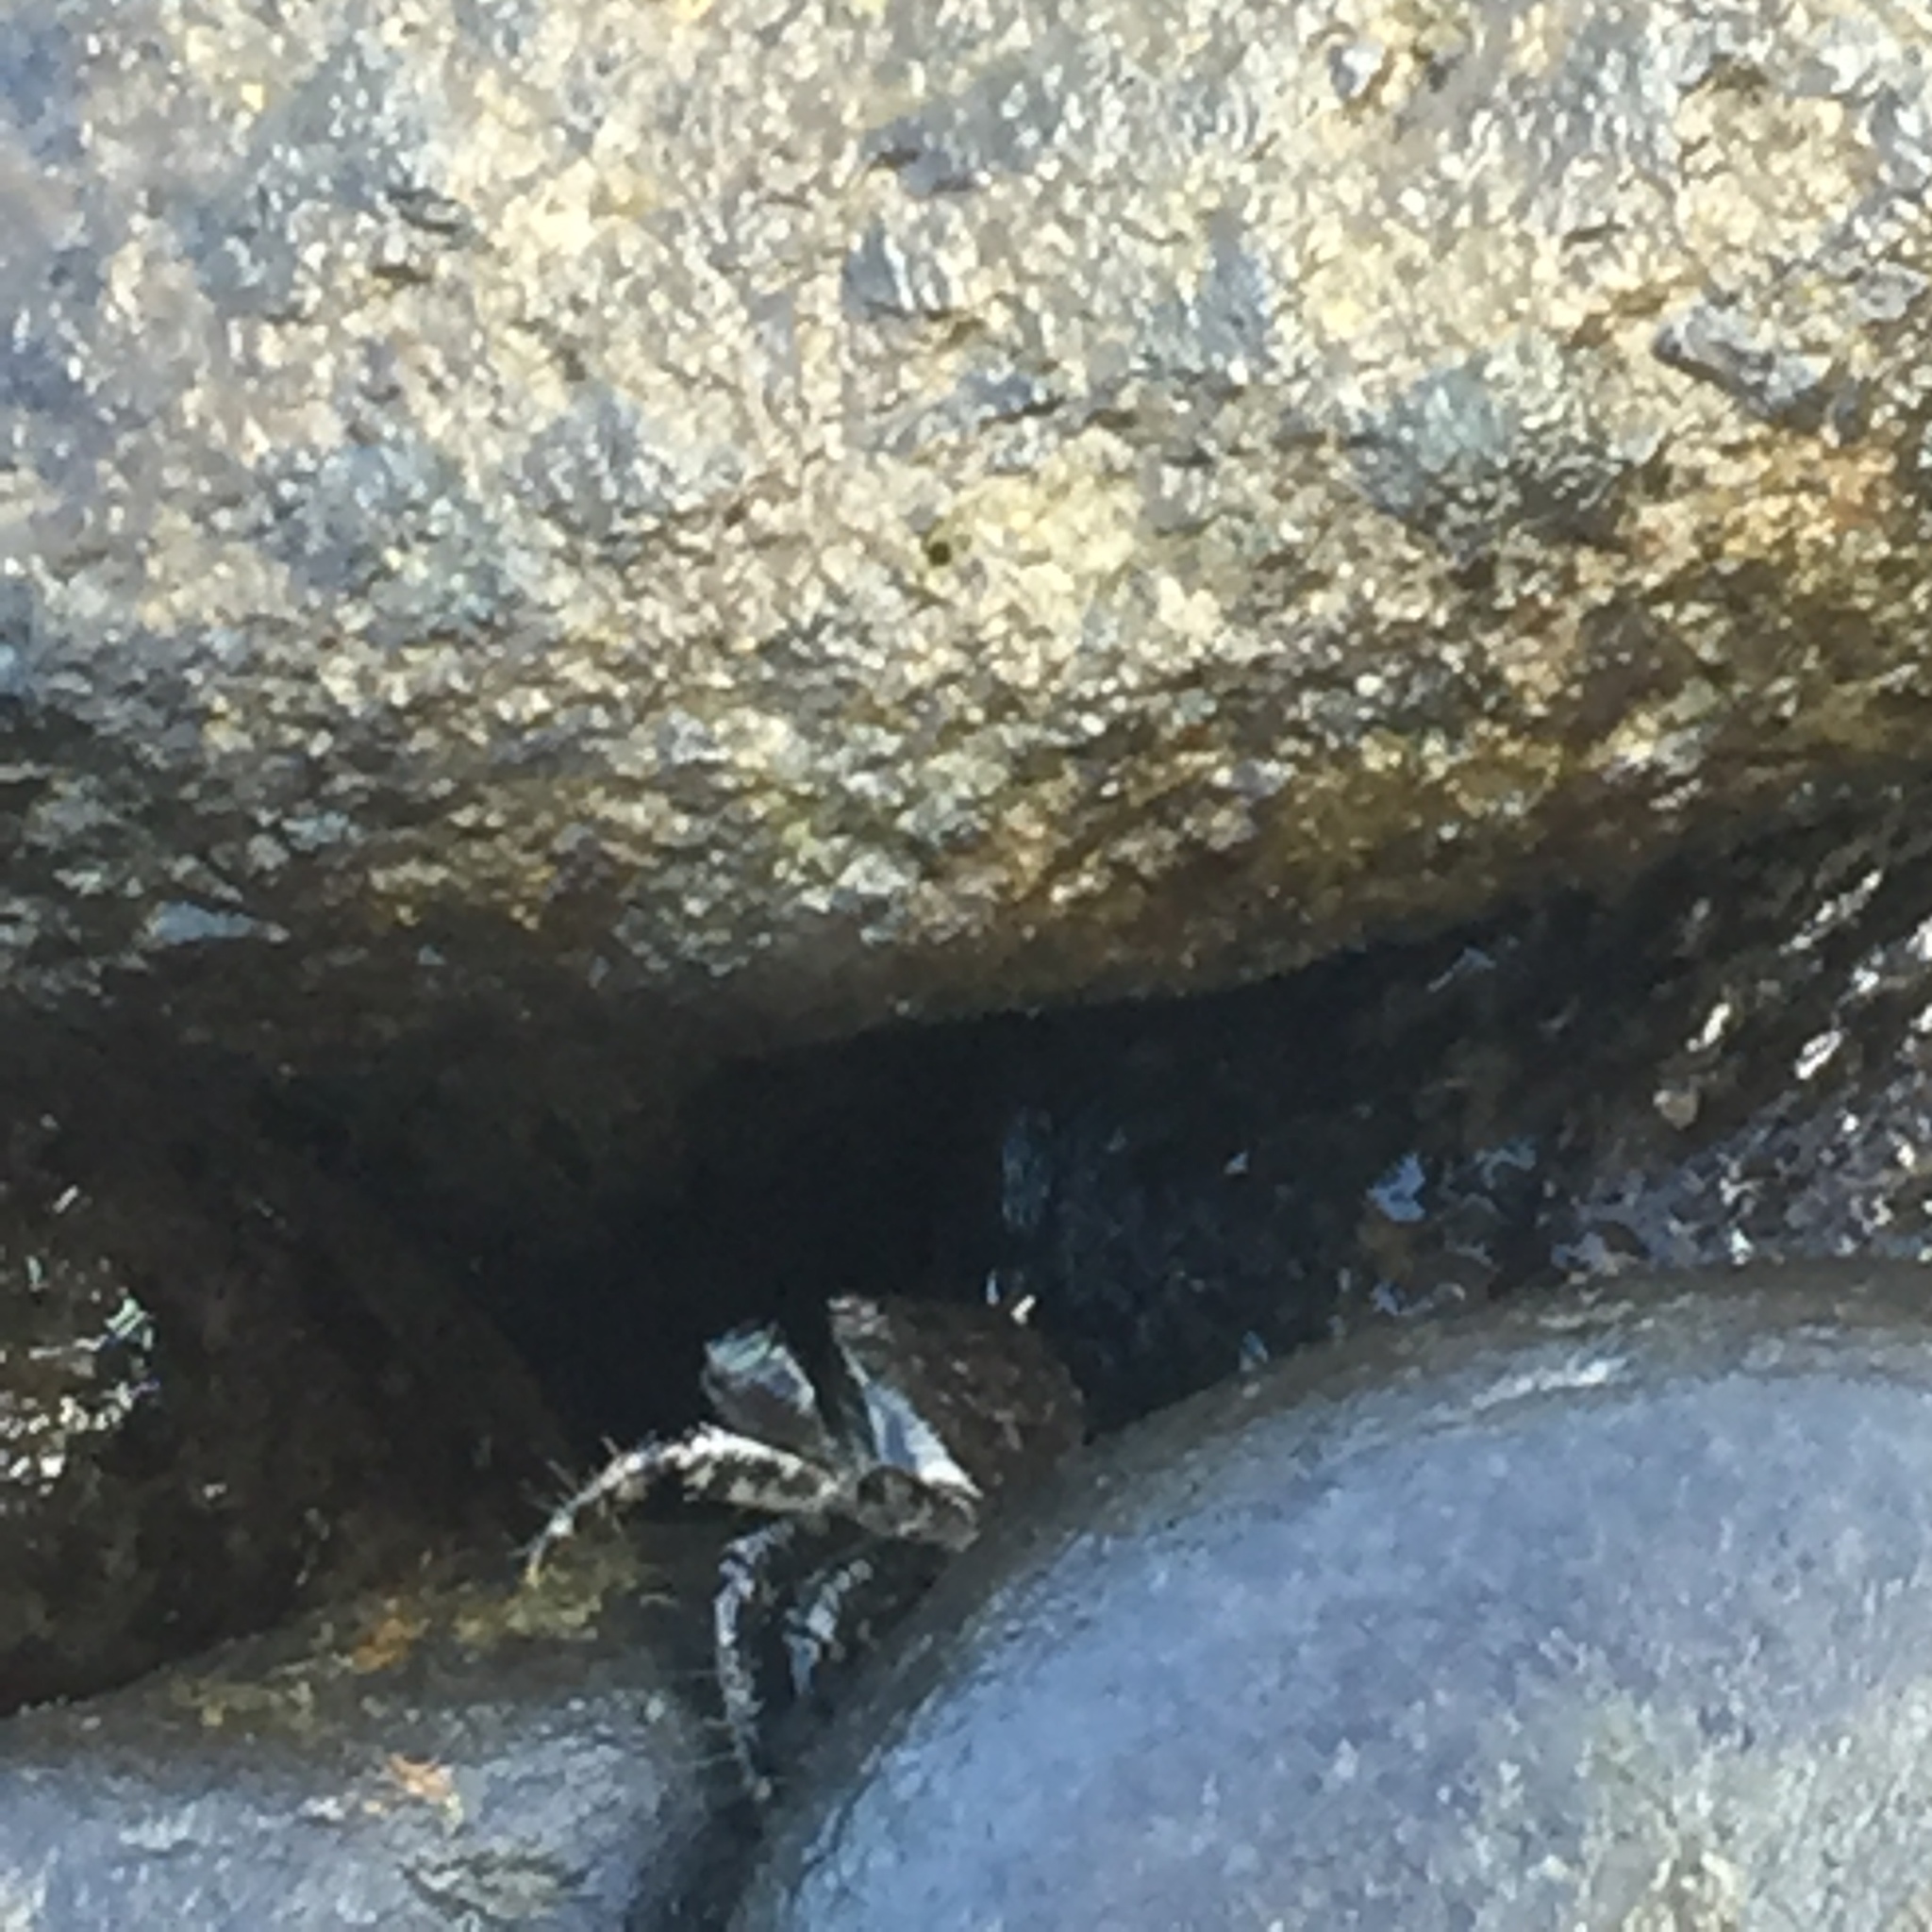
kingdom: Animalia
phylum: Arthropoda
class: Malacostraca
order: Decapoda
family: Grapsidae
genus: Pachygrapsus
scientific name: Pachygrapsus marmoratus
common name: Marbled rock crab
